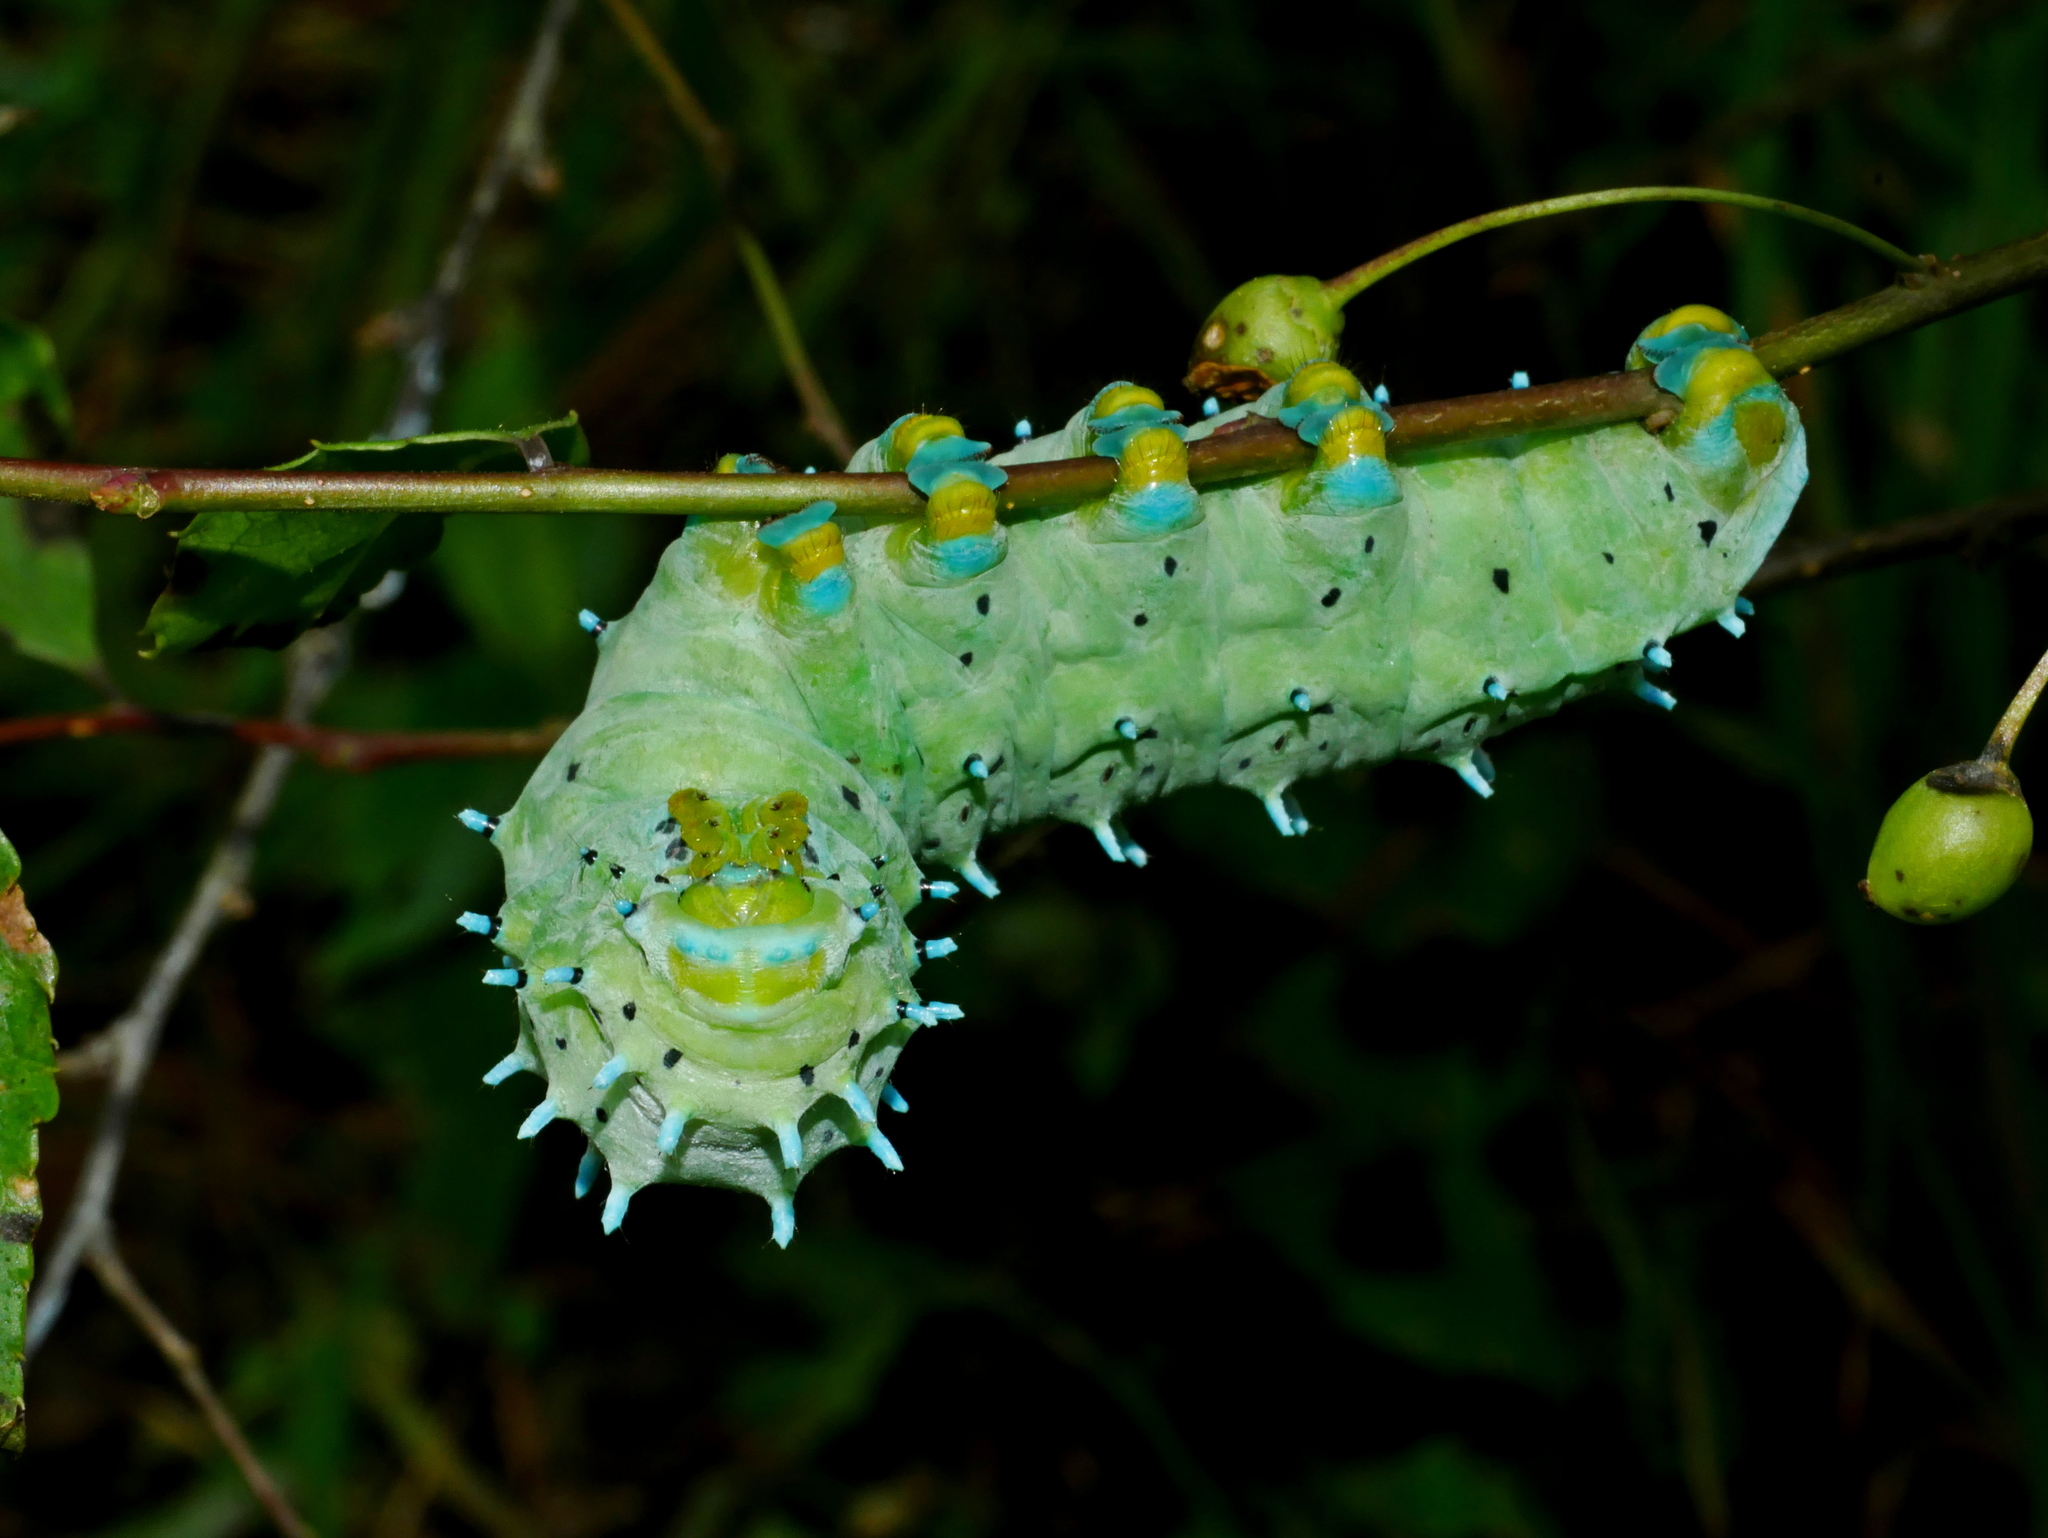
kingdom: Animalia
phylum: Arthropoda
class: Insecta
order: Lepidoptera
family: Saturniidae
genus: Samia
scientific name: Samia wangi
